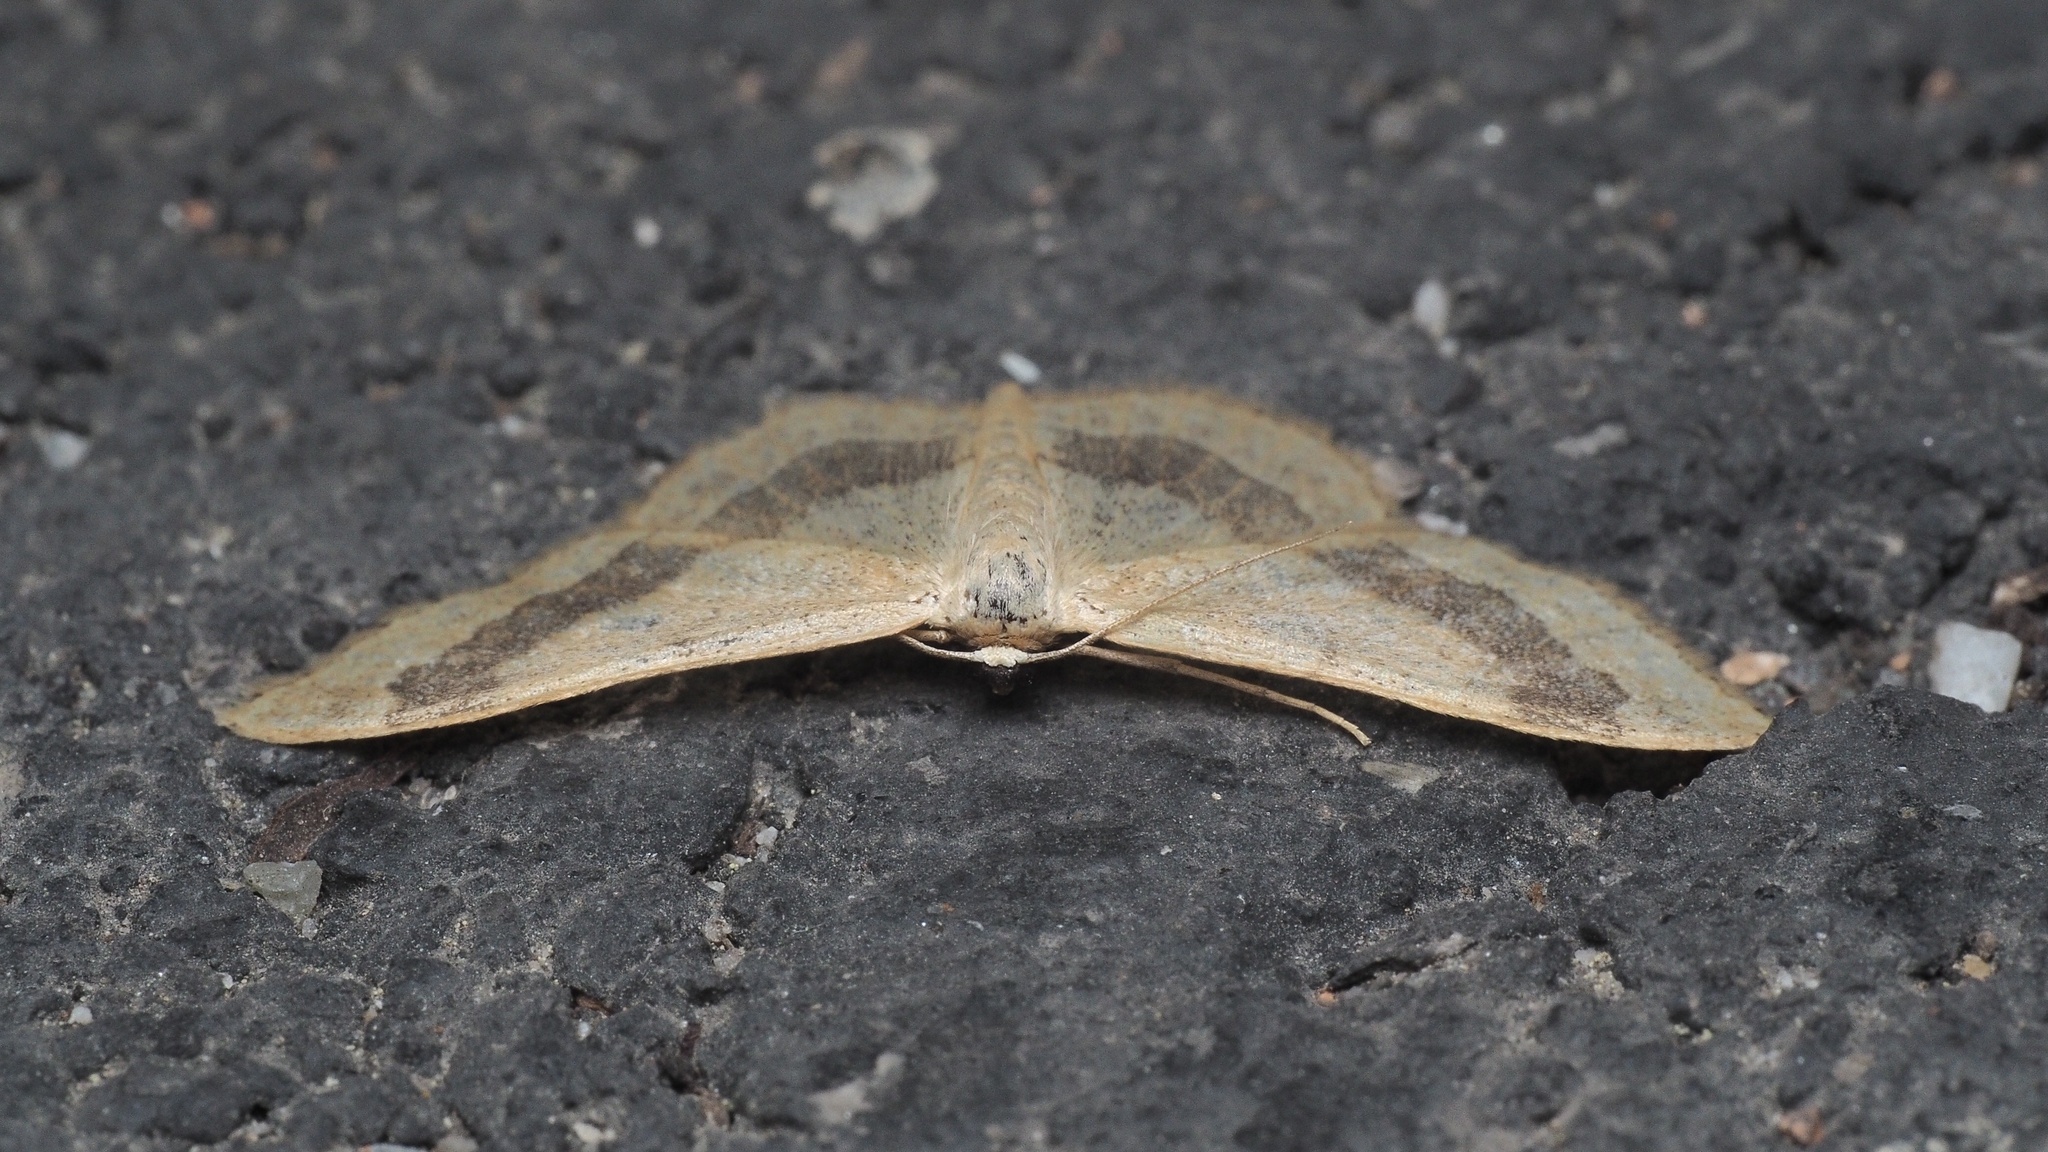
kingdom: Animalia
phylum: Arthropoda
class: Insecta
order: Lepidoptera
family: Geometridae
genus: Idaea
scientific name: Idaea aversata
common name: Riband wave
